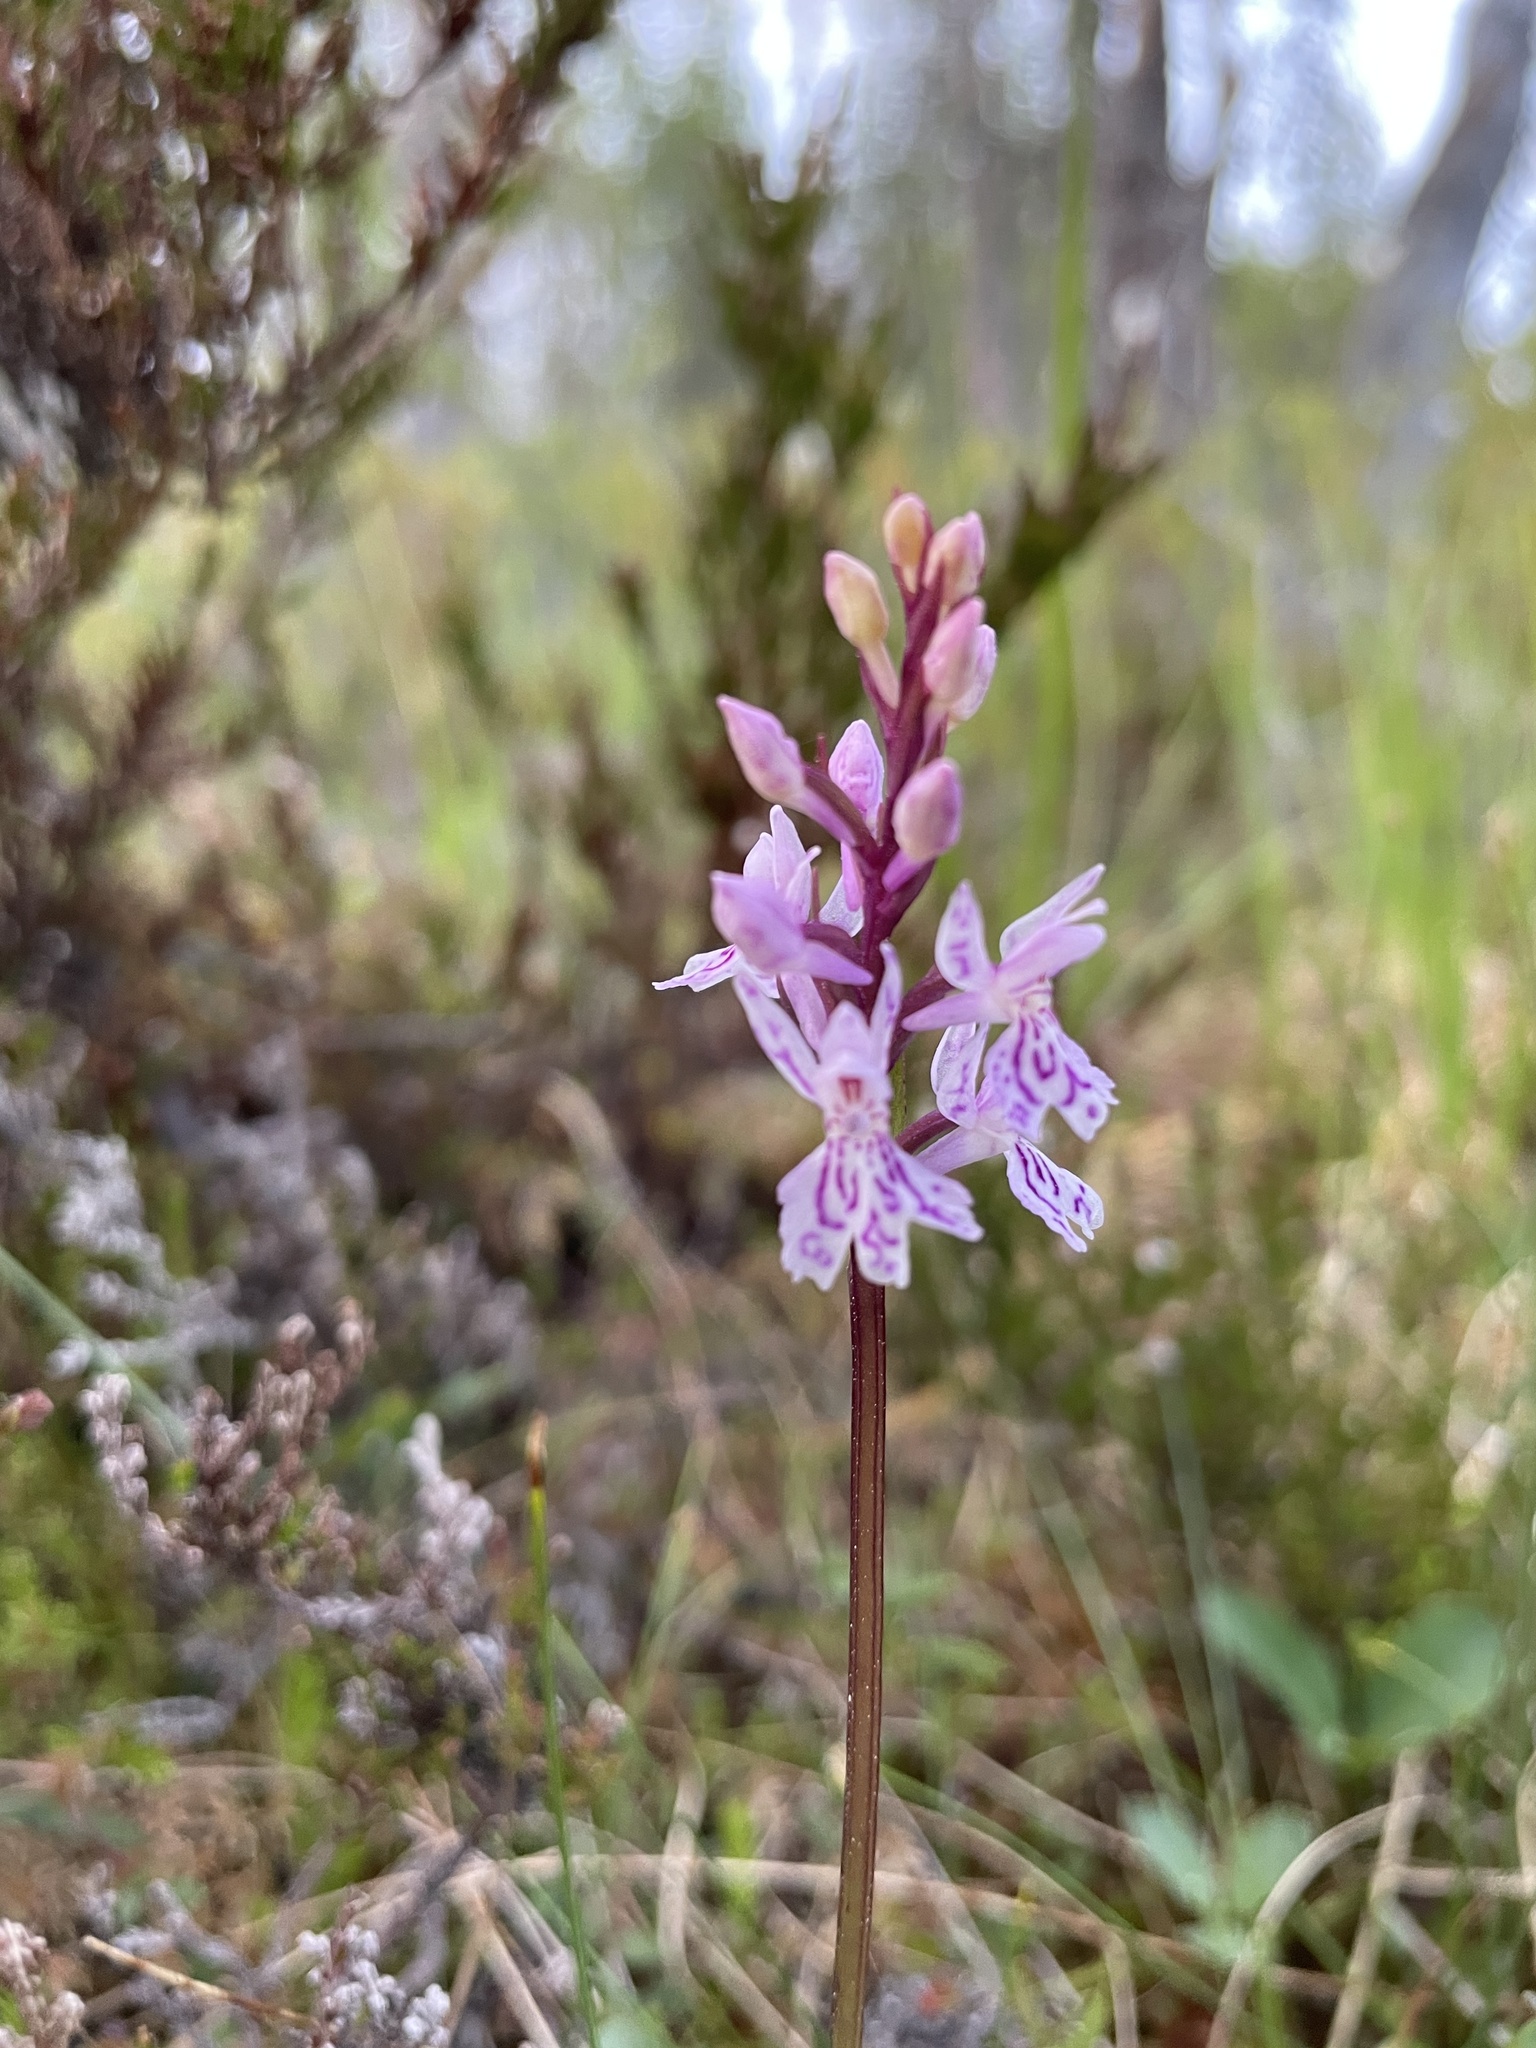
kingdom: Plantae
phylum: Tracheophyta
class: Liliopsida
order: Asparagales
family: Orchidaceae
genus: Dactylorhiza
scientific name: Dactylorhiza maculata
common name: Heath spotted-orchid
